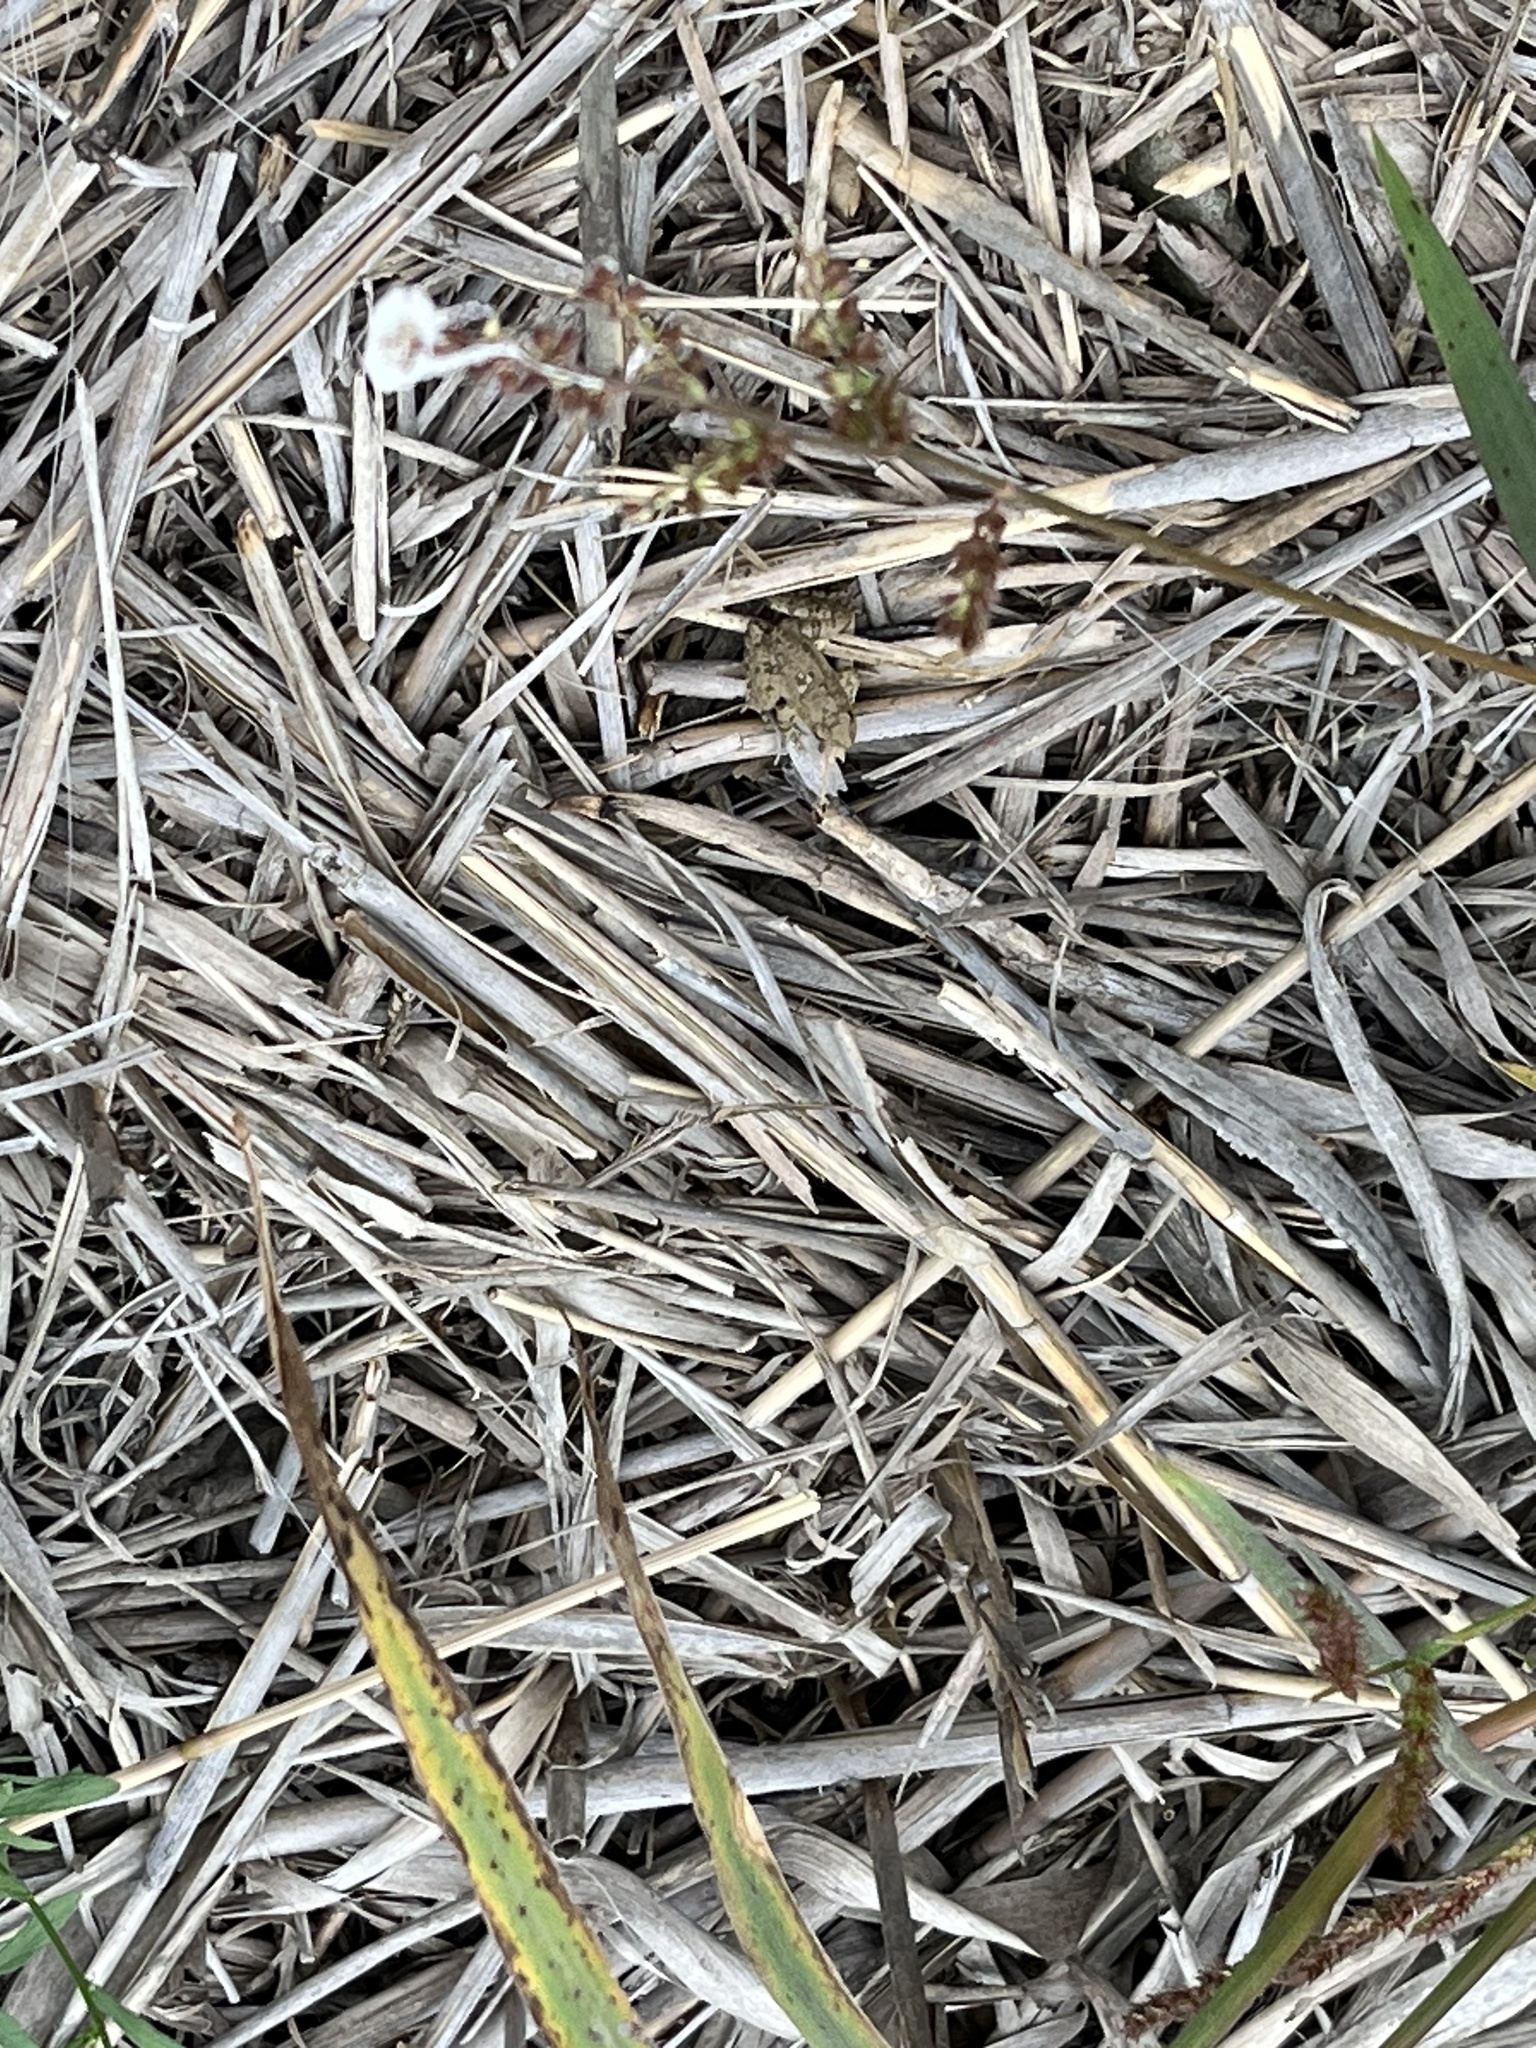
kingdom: Animalia
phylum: Chordata
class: Amphibia
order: Anura
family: Hylidae
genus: Acris
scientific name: Acris blanchardi
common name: Blanchard's cricket frog
